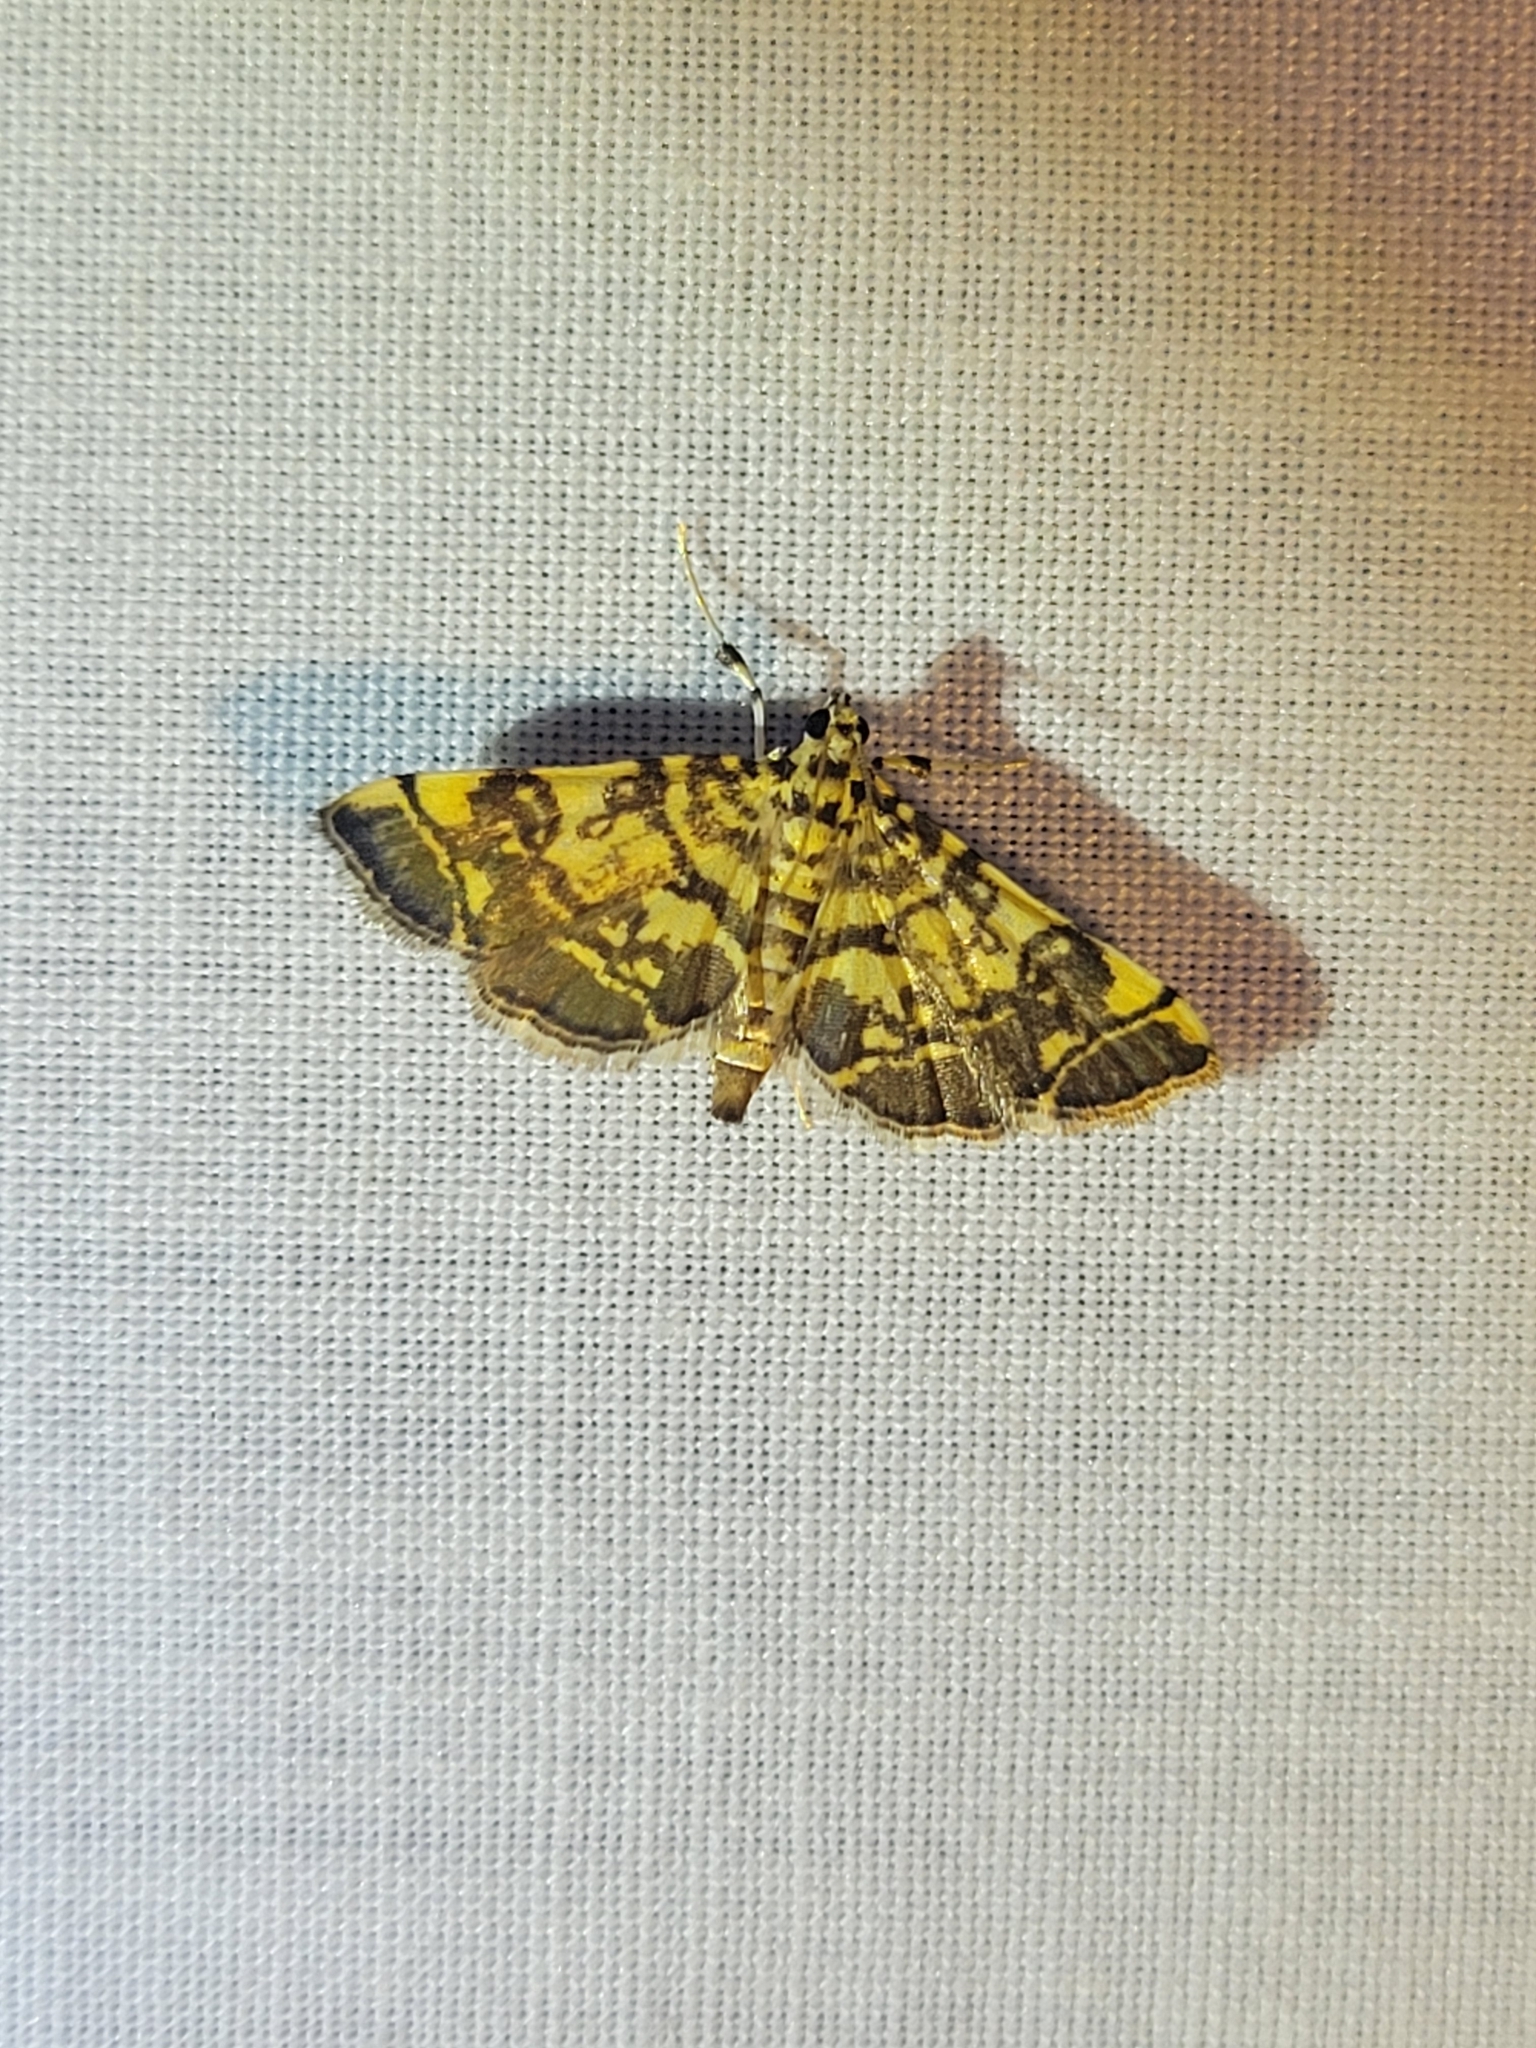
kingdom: Animalia
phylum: Arthropoda
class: Insecta
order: Lepidoptera
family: Crambidae
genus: Apogeshna
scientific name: Apogeshna stenialis
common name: Checkered apogeshna moth
